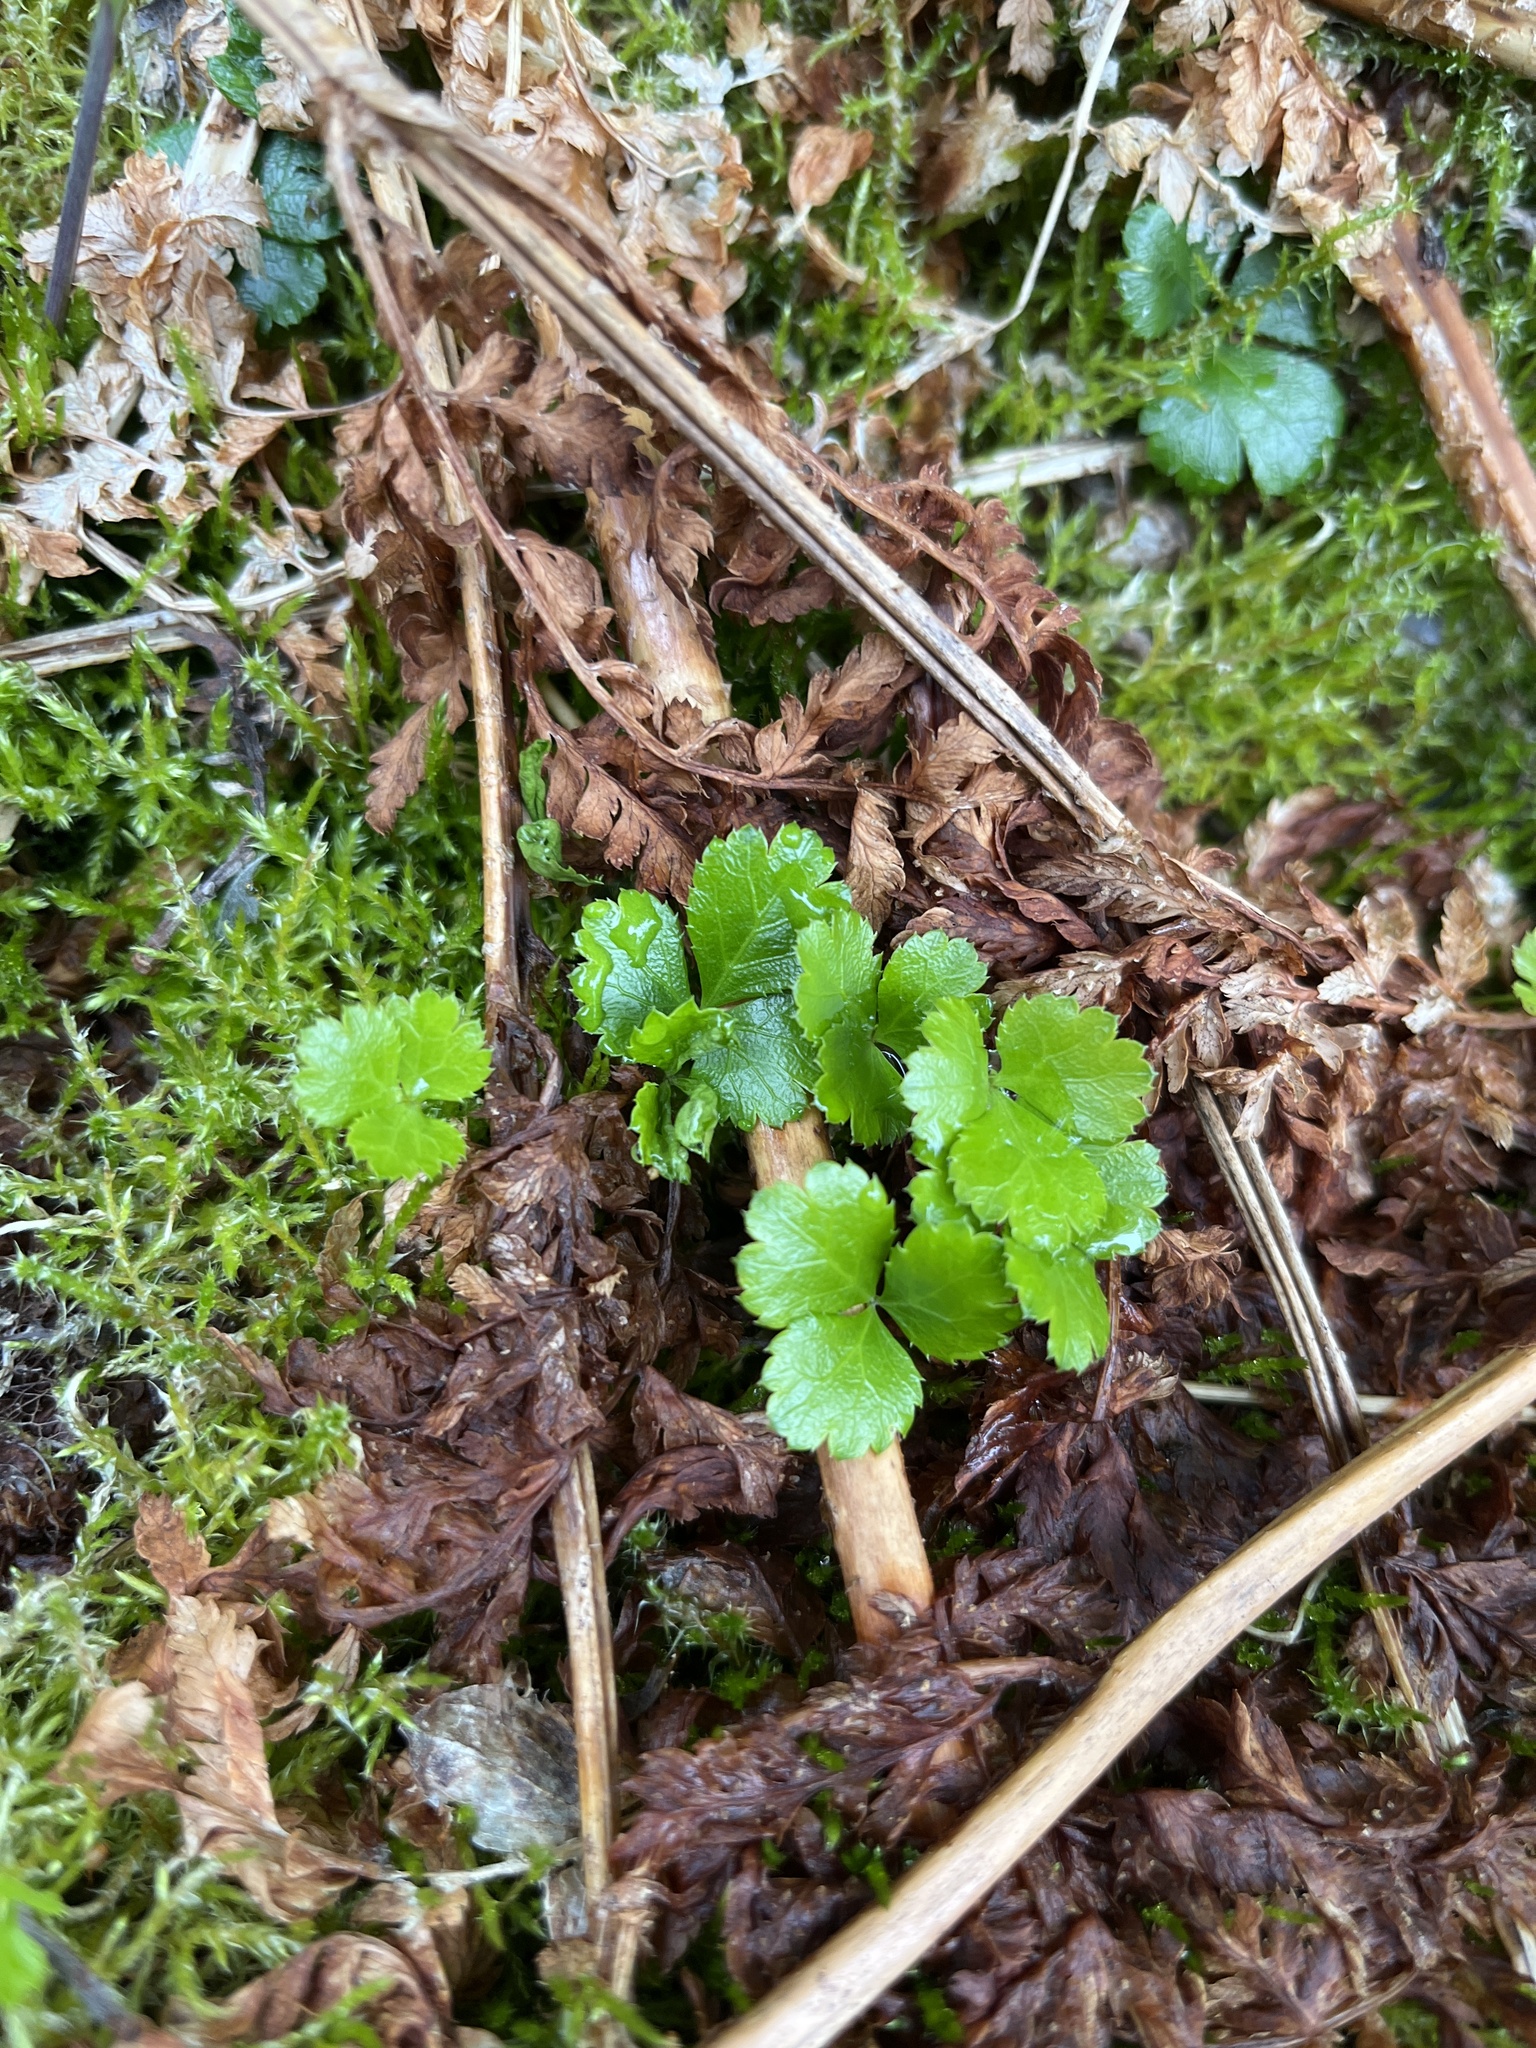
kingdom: Plantae
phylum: Tracheophyta
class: Magnoliopsida
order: Ranunculales
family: Ranunculaceae
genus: Coptis
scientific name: Coptis trifolia
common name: Canker-root
